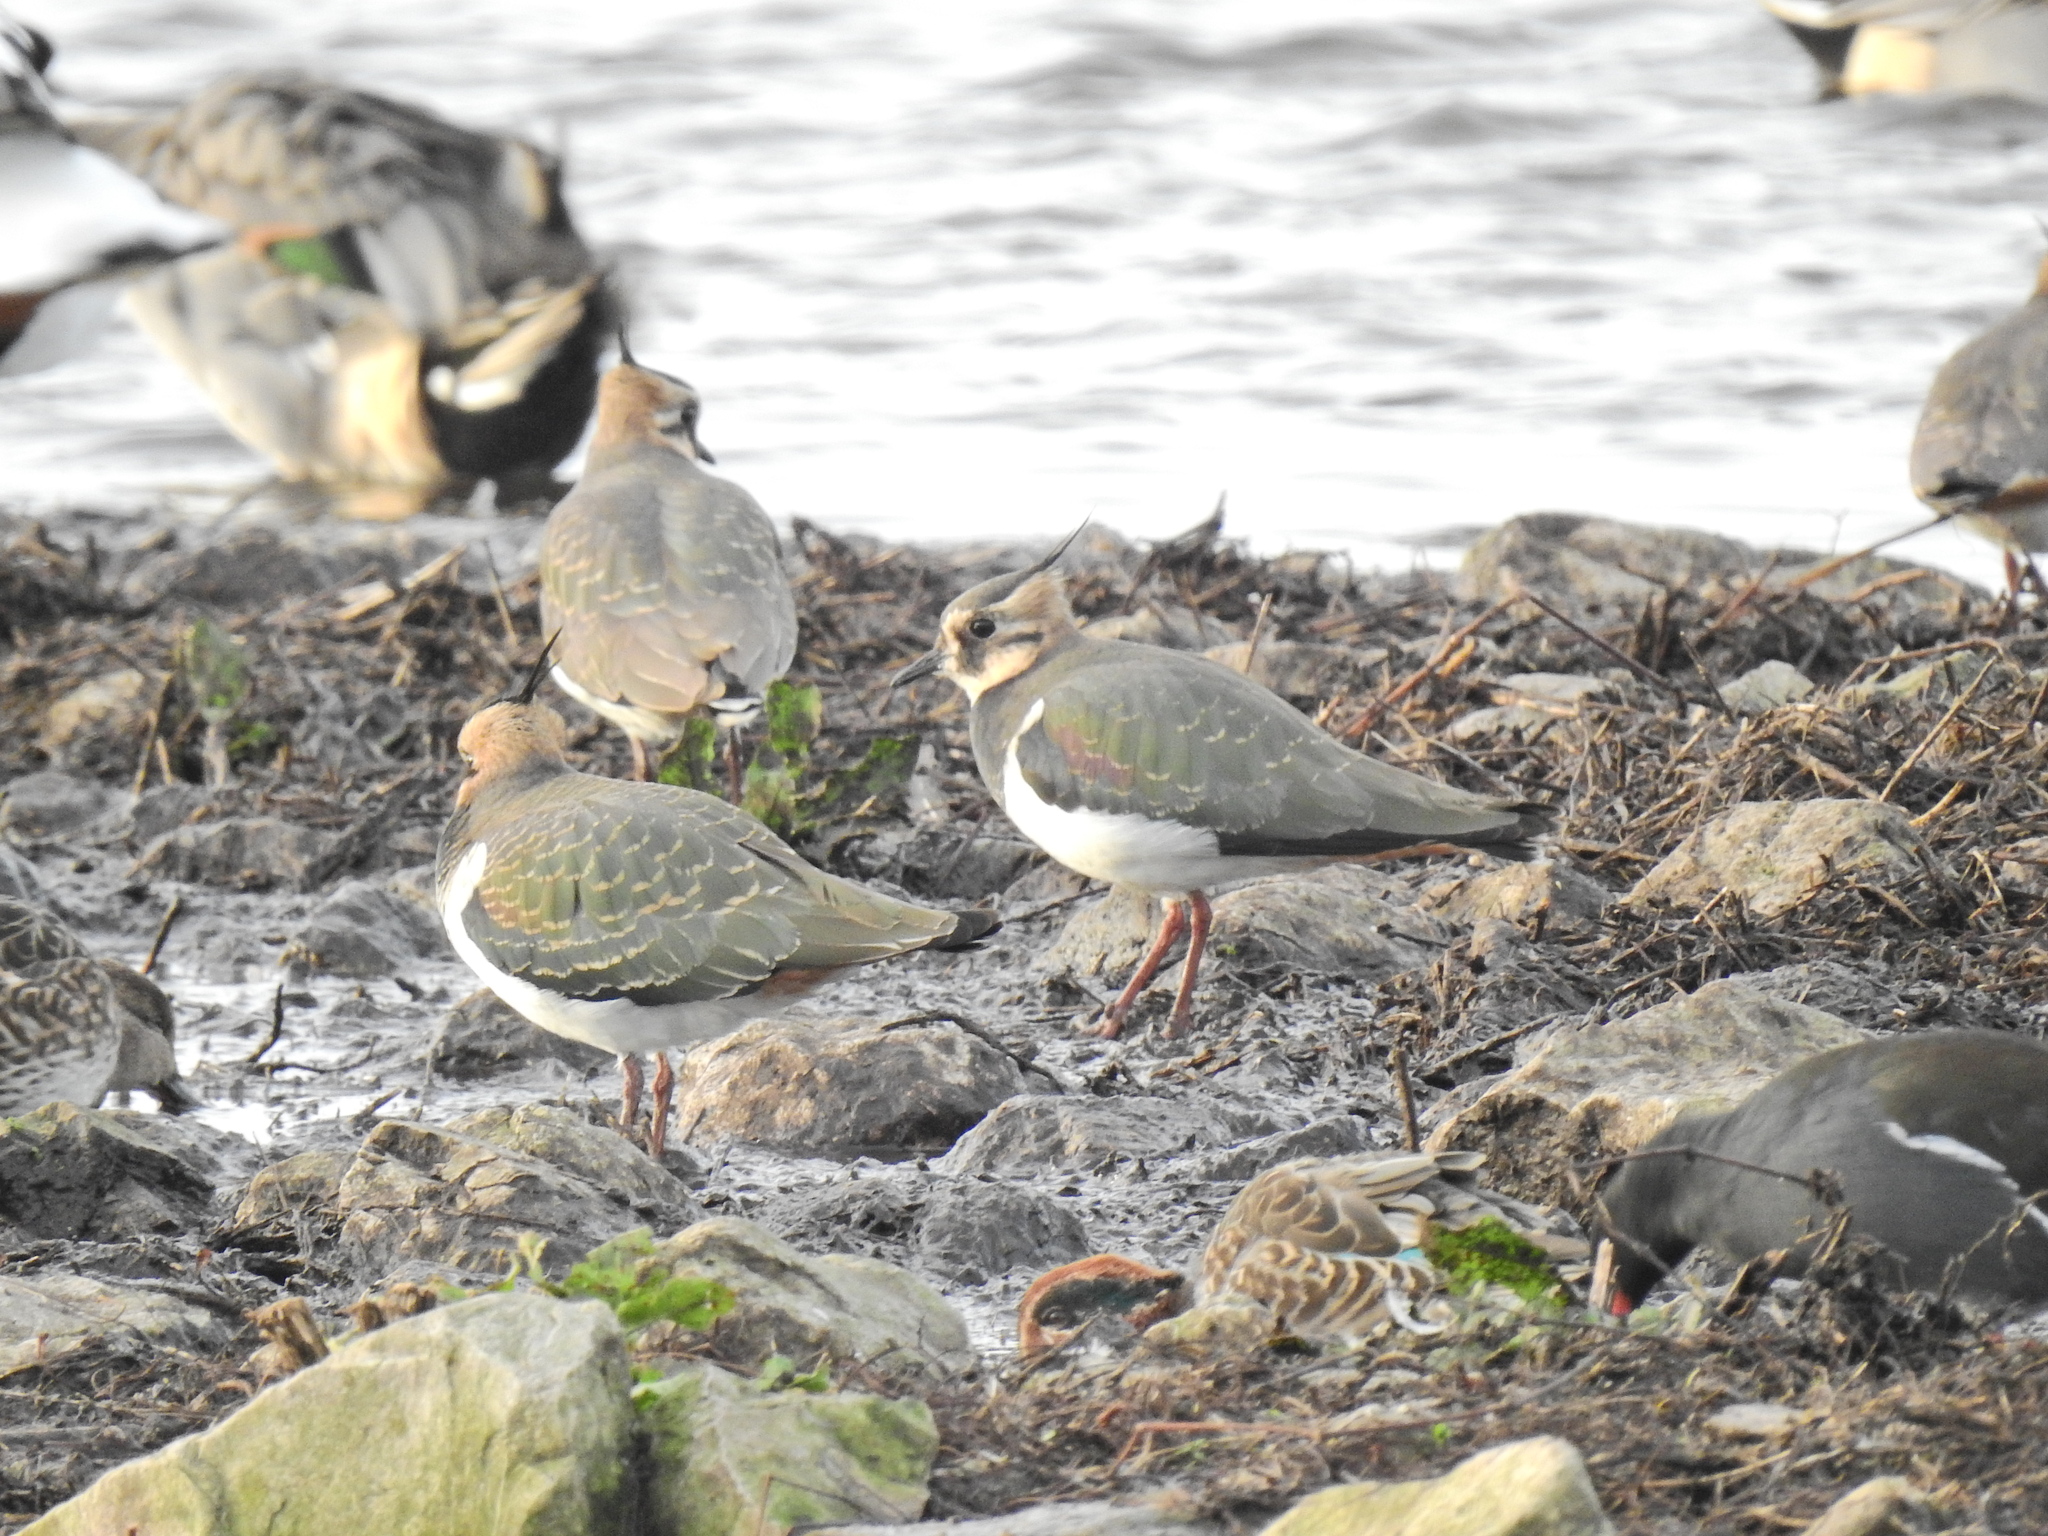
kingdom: Animalia
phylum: Chordata
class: Aves
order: Charadriiformes
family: Charadriidae
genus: Vanellus
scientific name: Vanellus vanellus
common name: Northern lapwing
